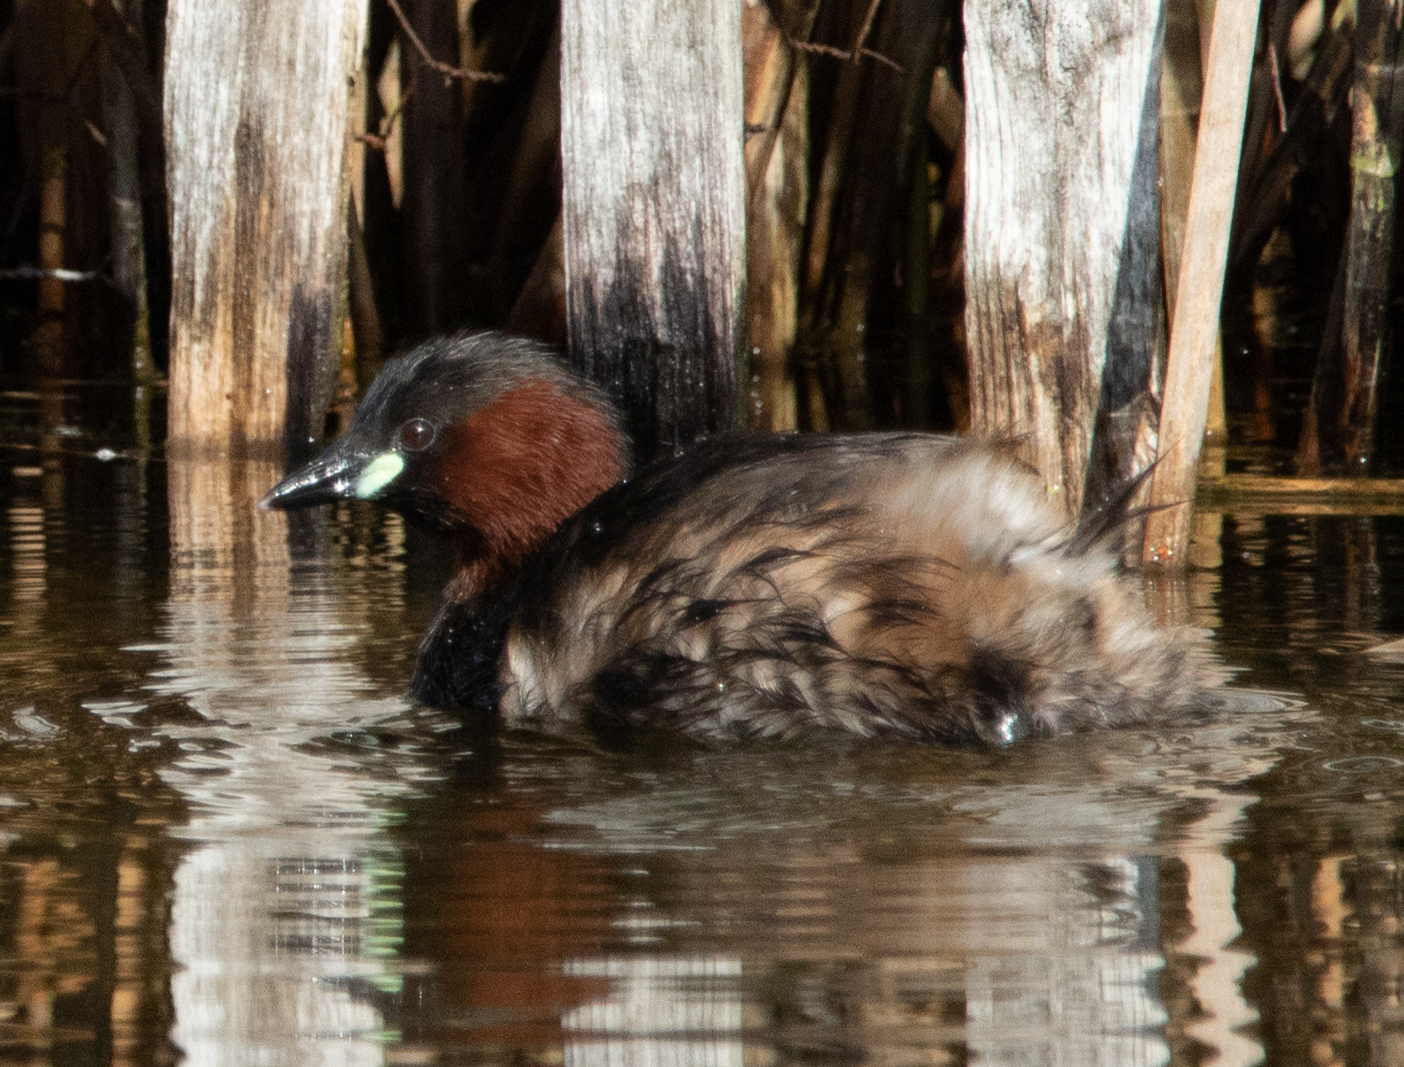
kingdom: Animalia
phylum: Chordata
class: Aves
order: Podicipediformes
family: Podicipedidae
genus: Tachybaptus
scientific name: Tachybaptus ruficollis
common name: Little grebe
